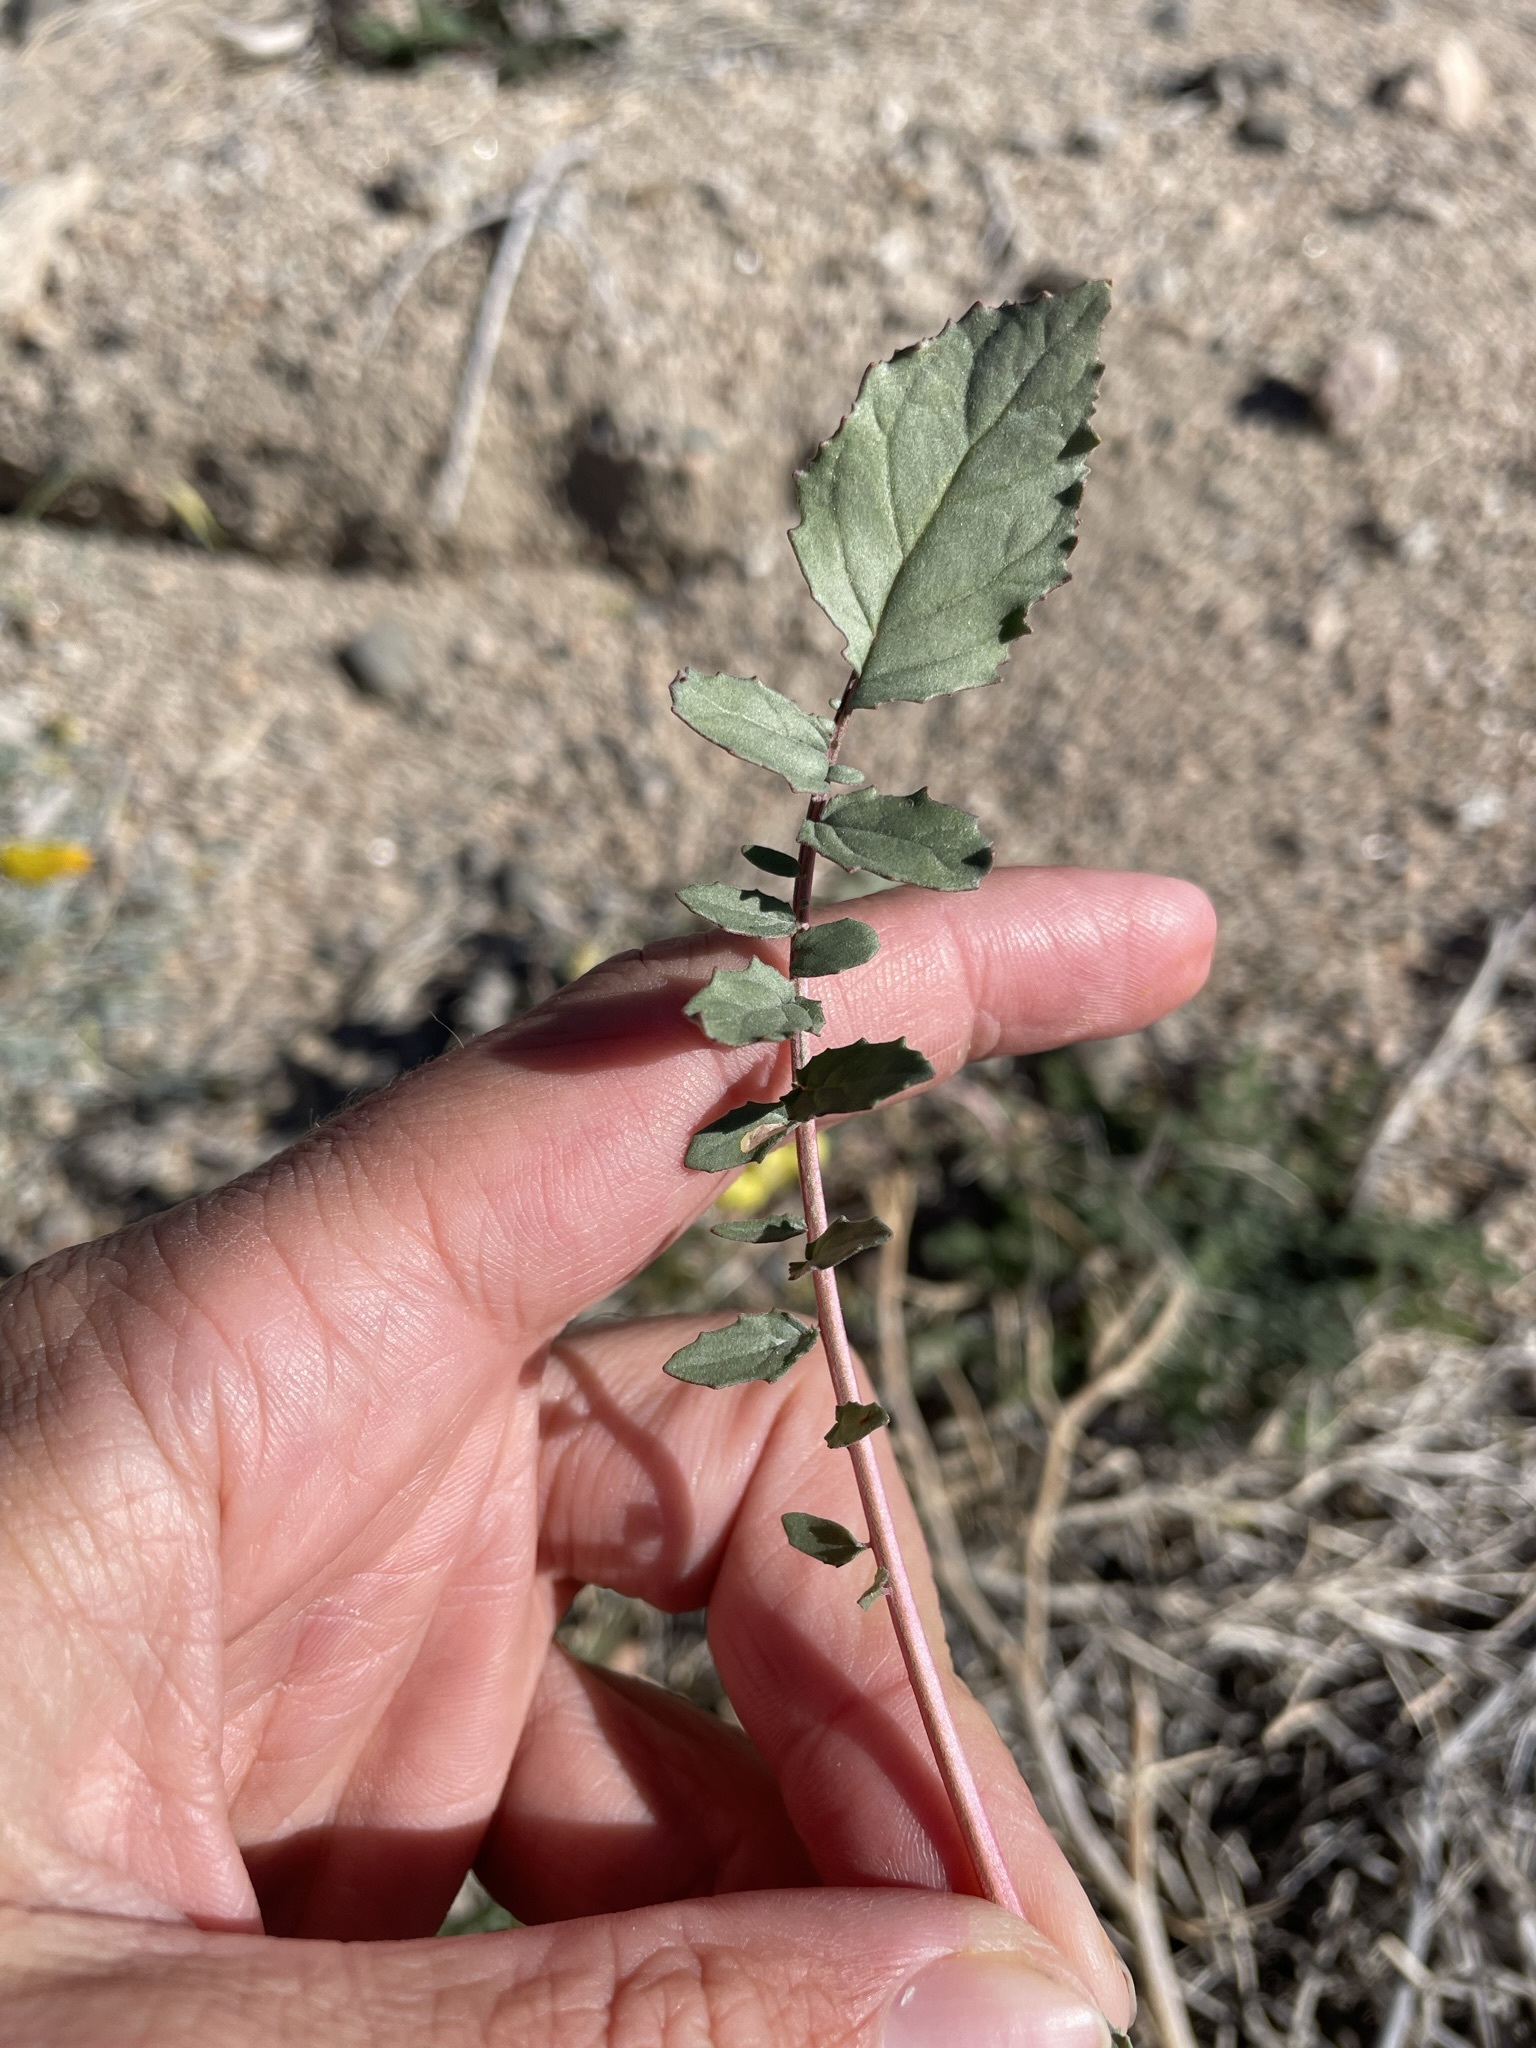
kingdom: Plantae
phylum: Tracheophyta
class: Magnoliopsida
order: Myrtales
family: Onagraceae
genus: Chylismia
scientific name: Chylismia claviformis
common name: Browneyes
